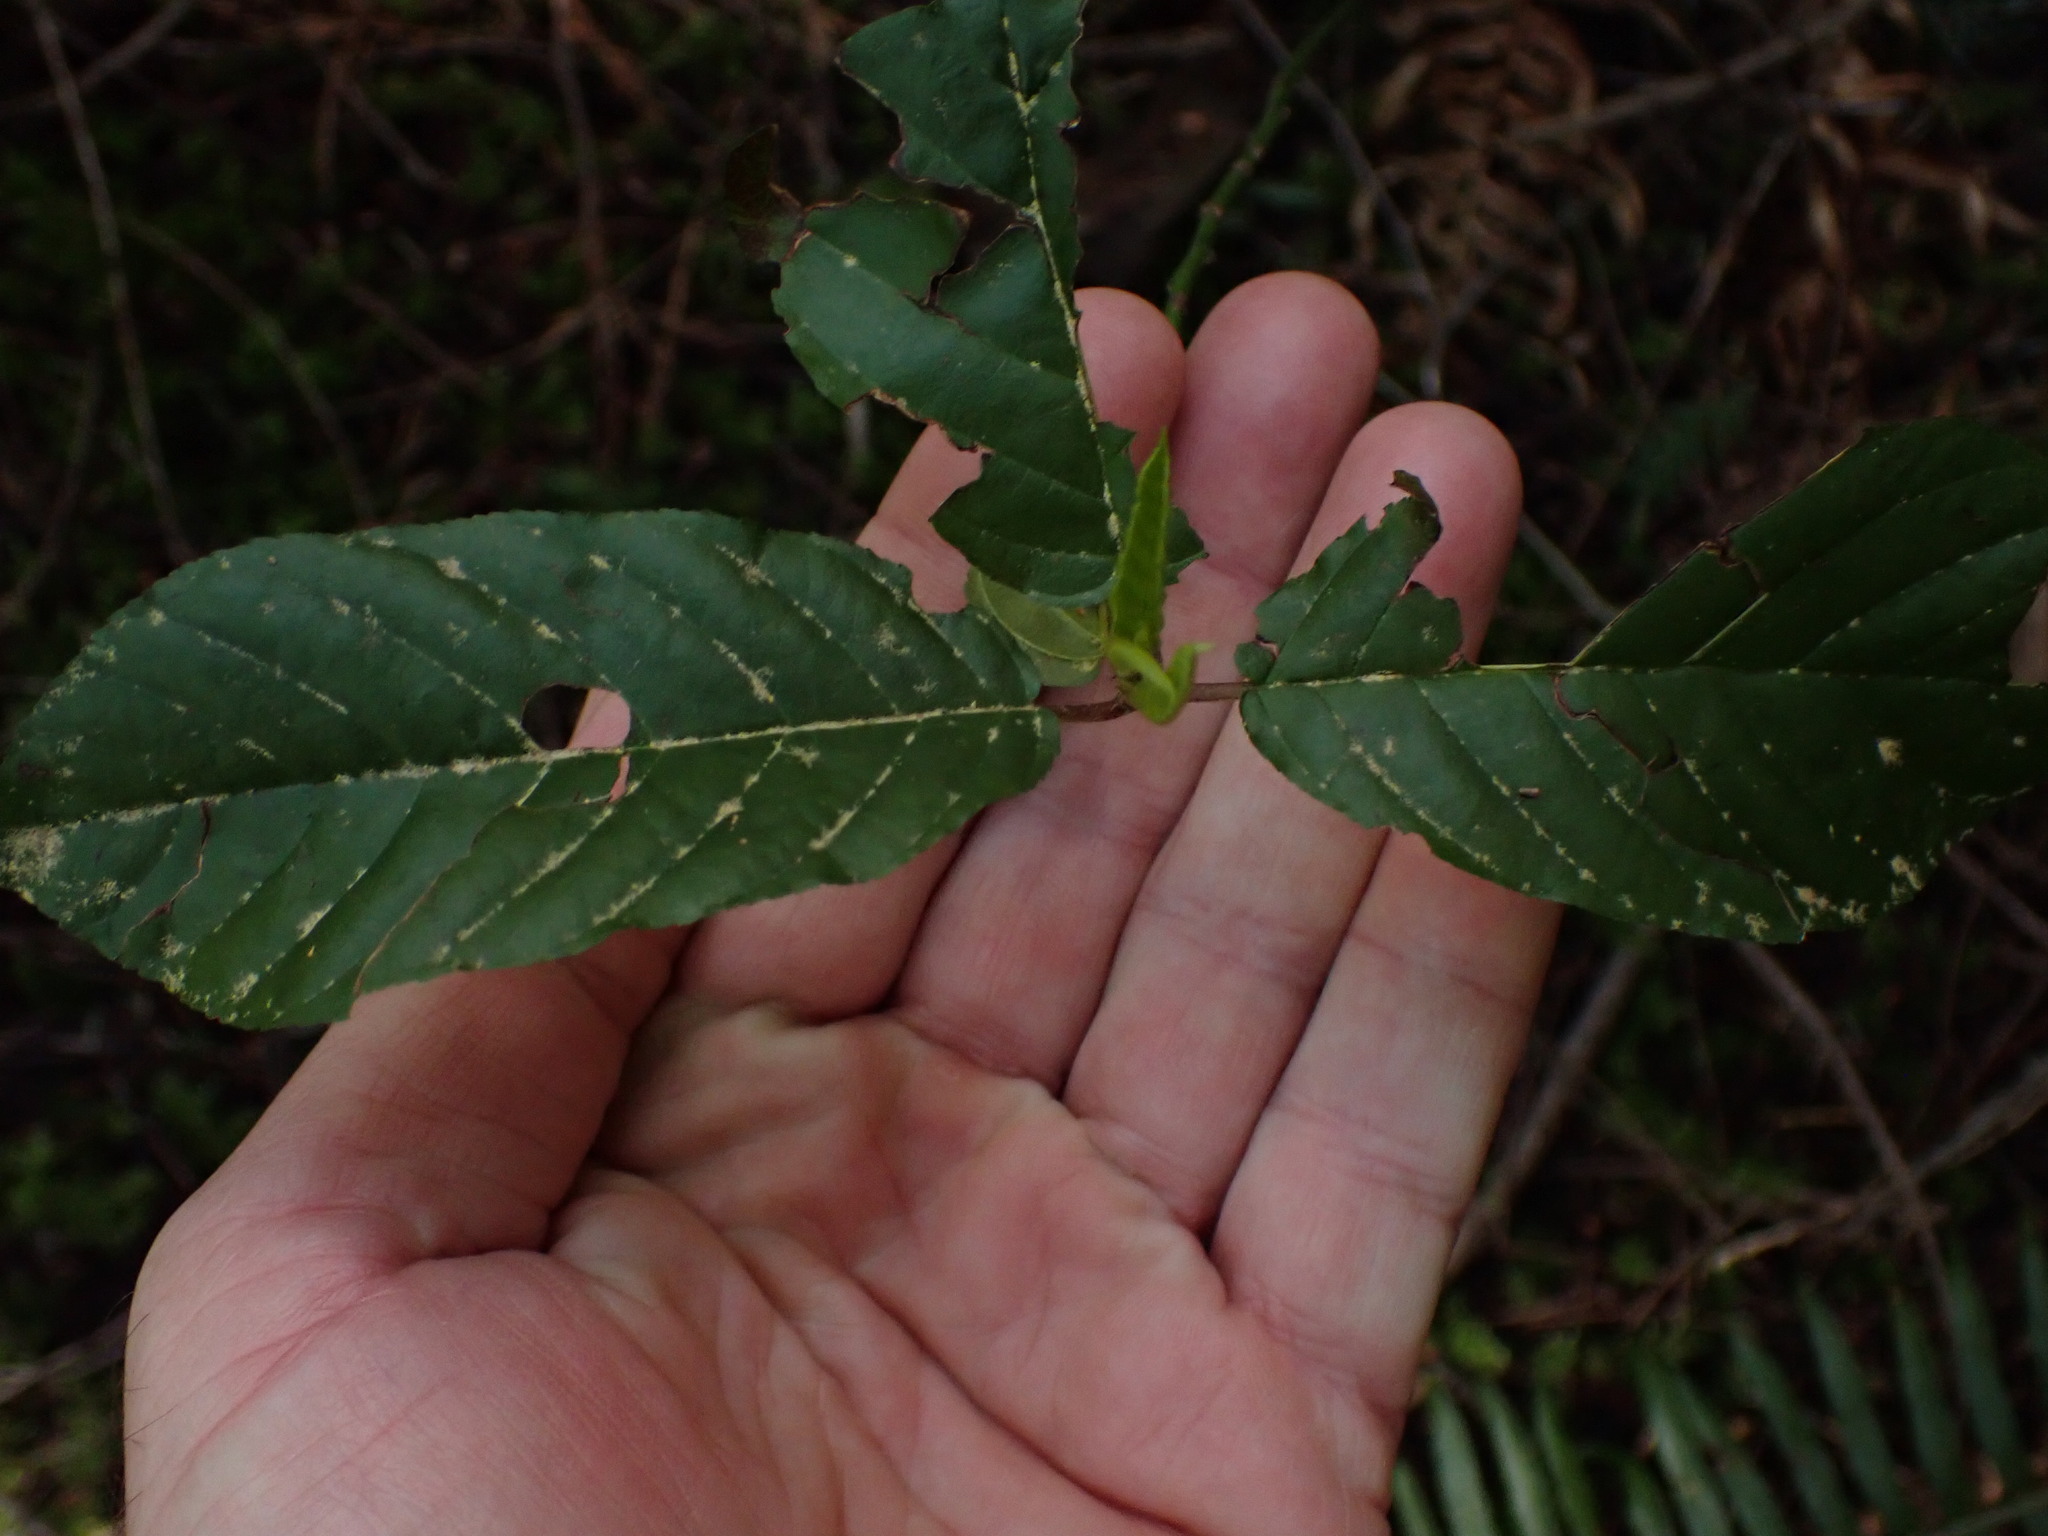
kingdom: Plantae
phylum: Tracheophyta
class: Magnoliopsida
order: Rosales
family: Rhamnaceae
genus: Frangula
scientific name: Frangula purshiana
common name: Cascara buckthorn
